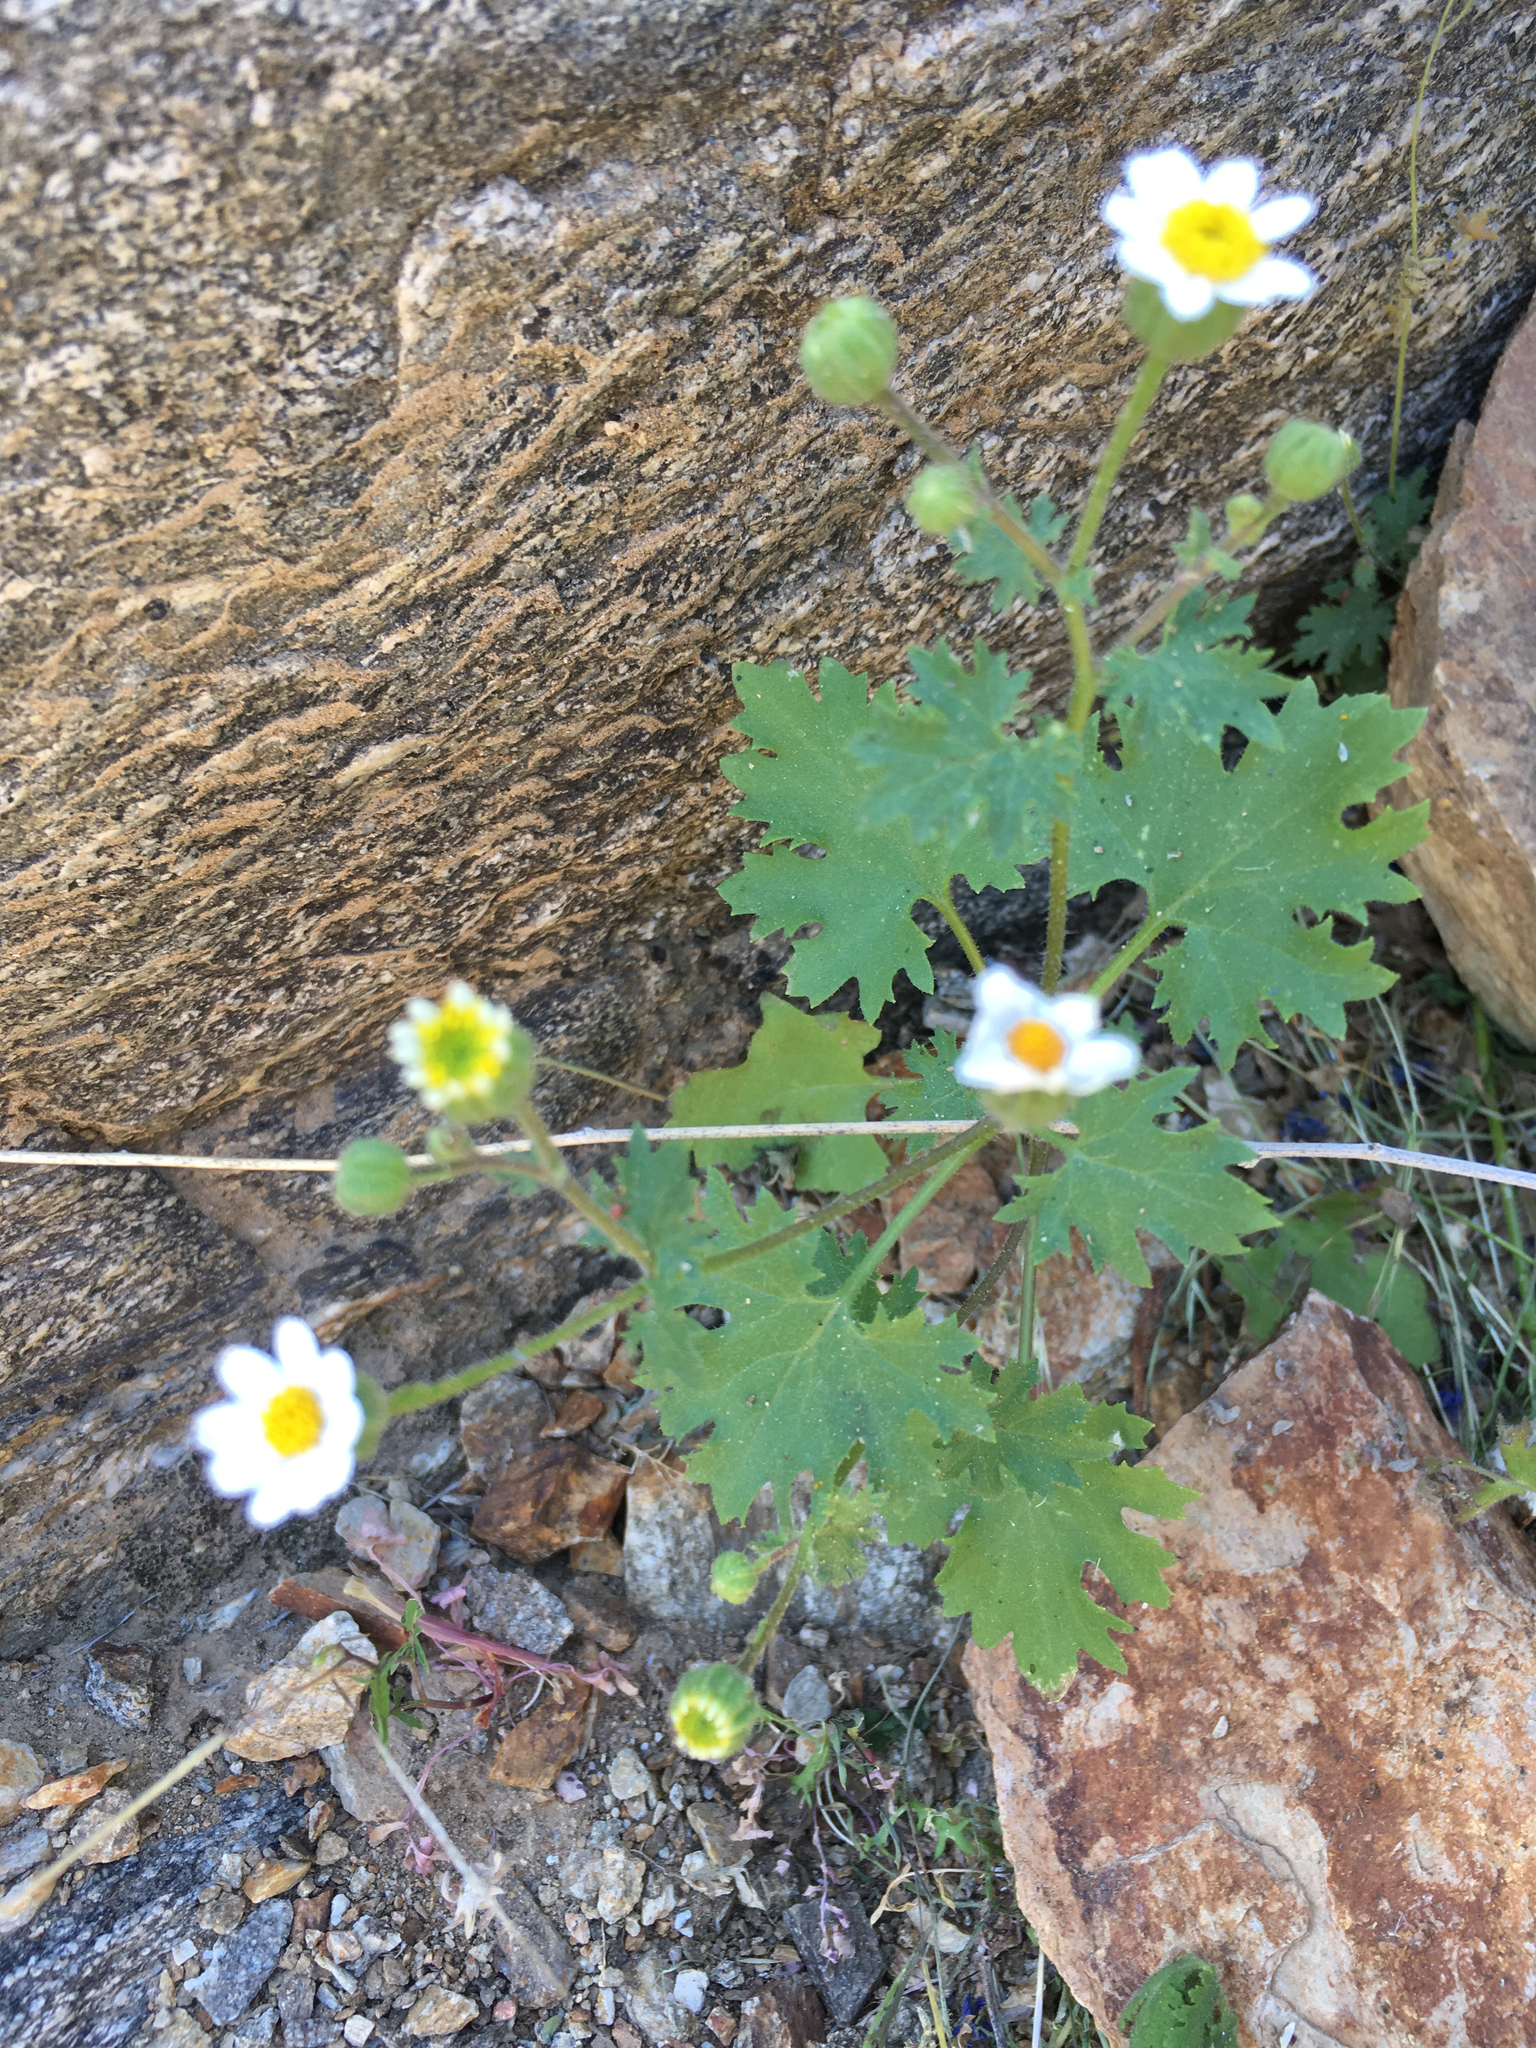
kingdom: Plantae
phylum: Tracheophyta
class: Magnoliopsida
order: Asterales
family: Asteraceae
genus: Laphamia
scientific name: Laphamia emoryi
